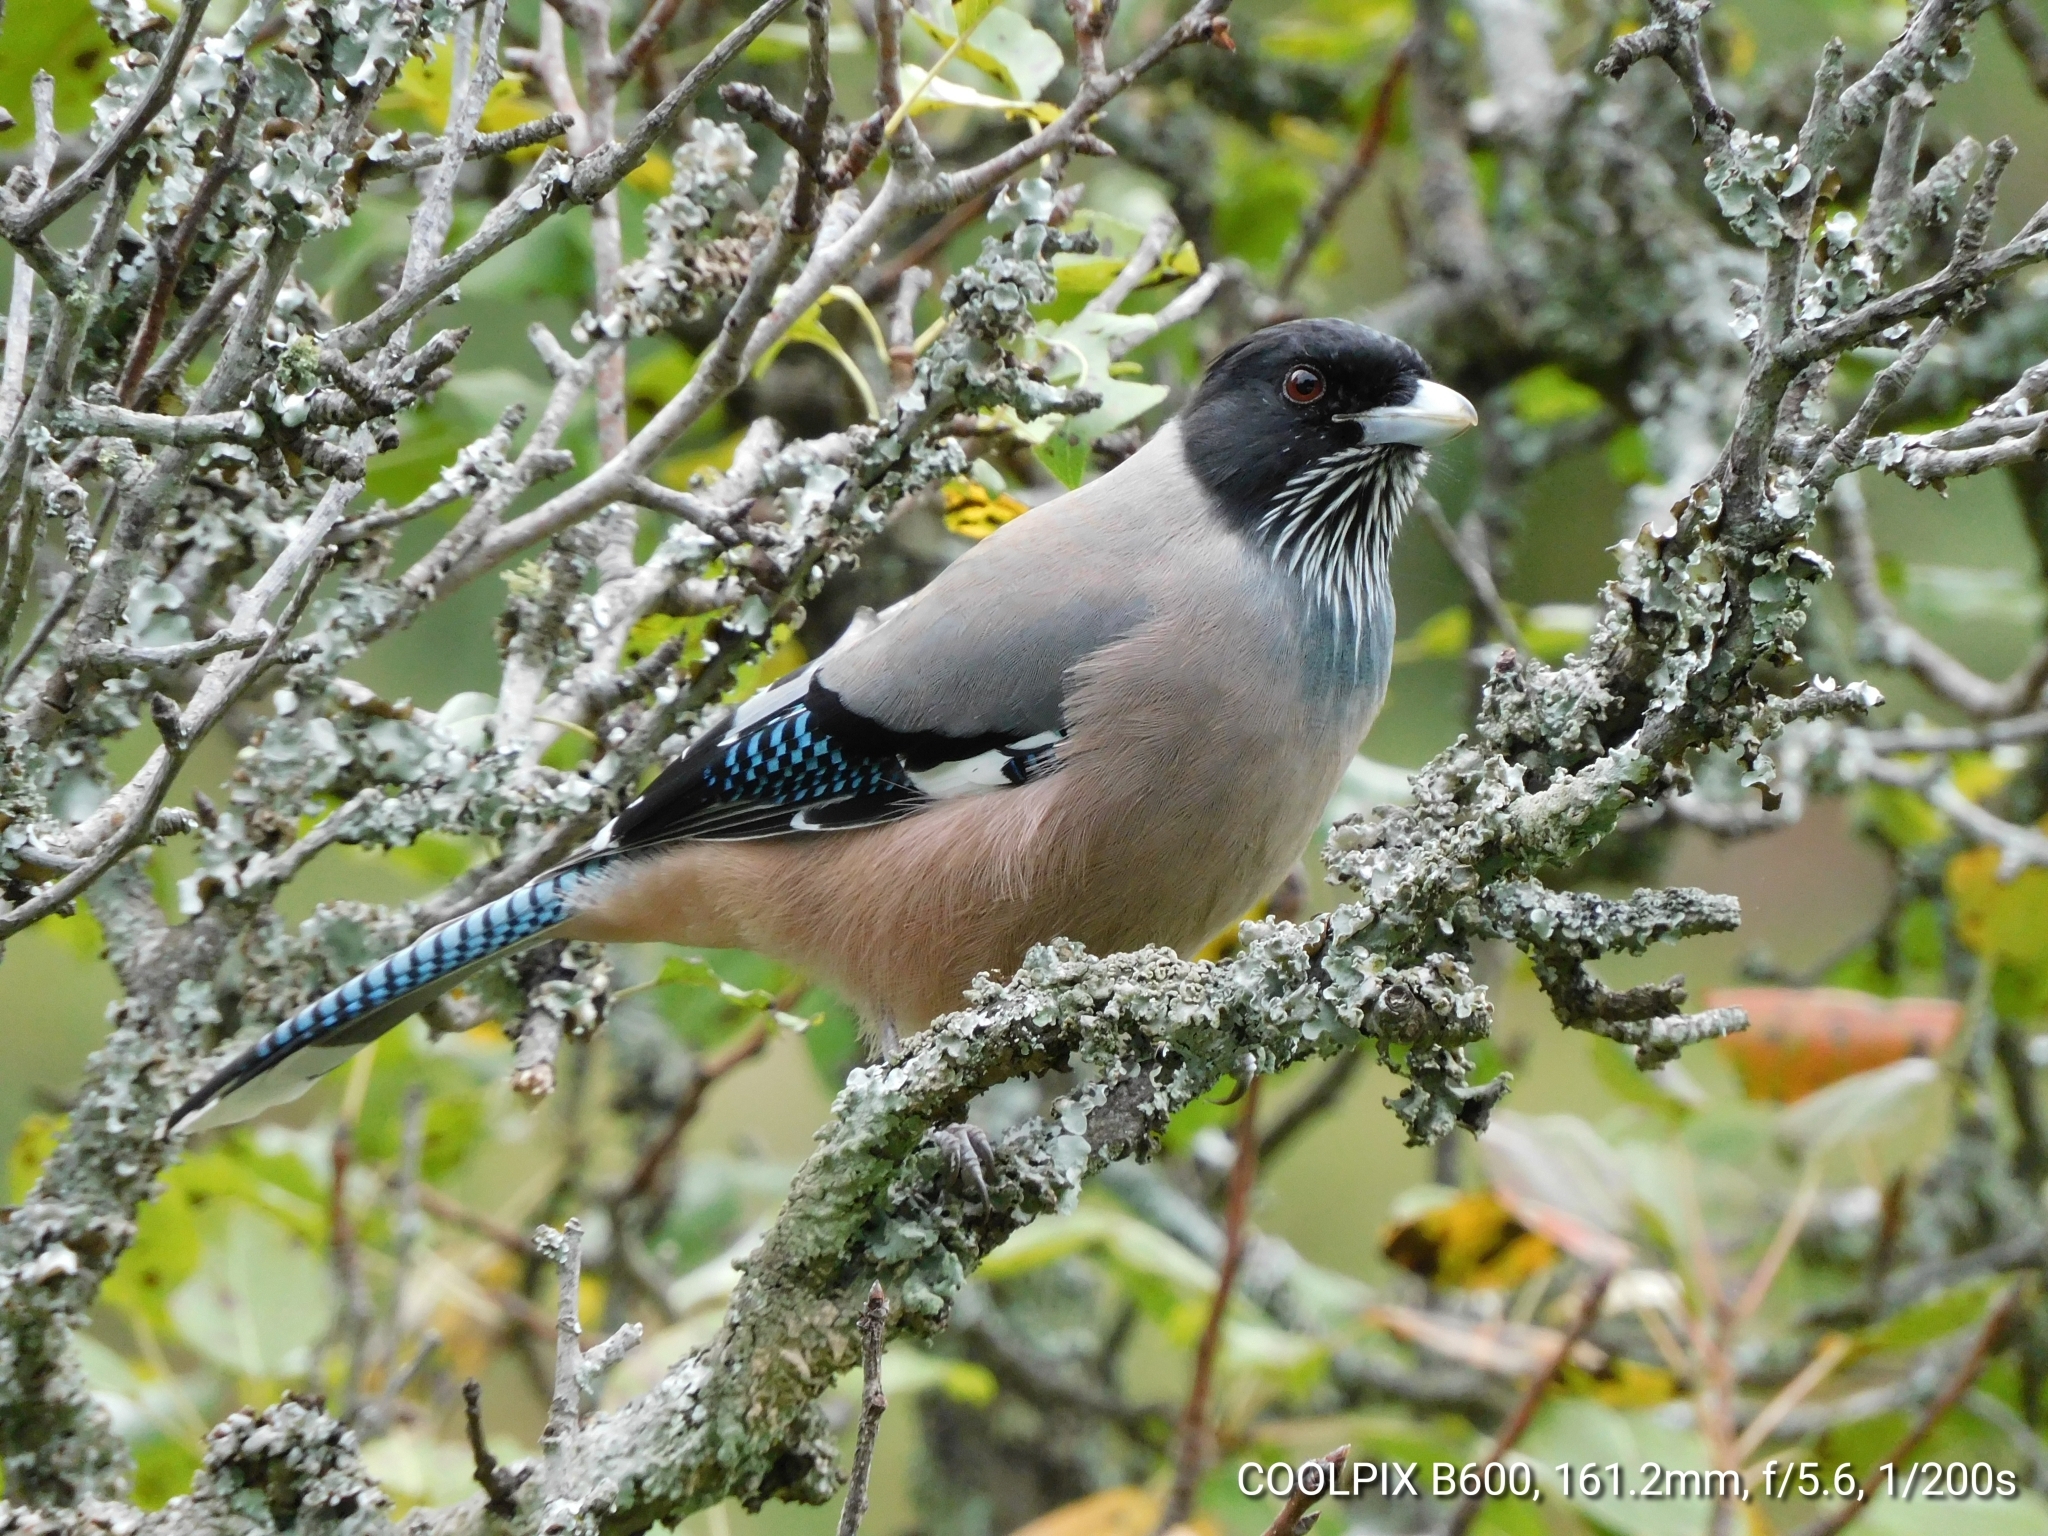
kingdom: Animalia
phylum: Chordata
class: Aves
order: Passeriformes
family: Corvidae
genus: Garrulus
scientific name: Garrulus lanceolatus
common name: Black-headed jay
